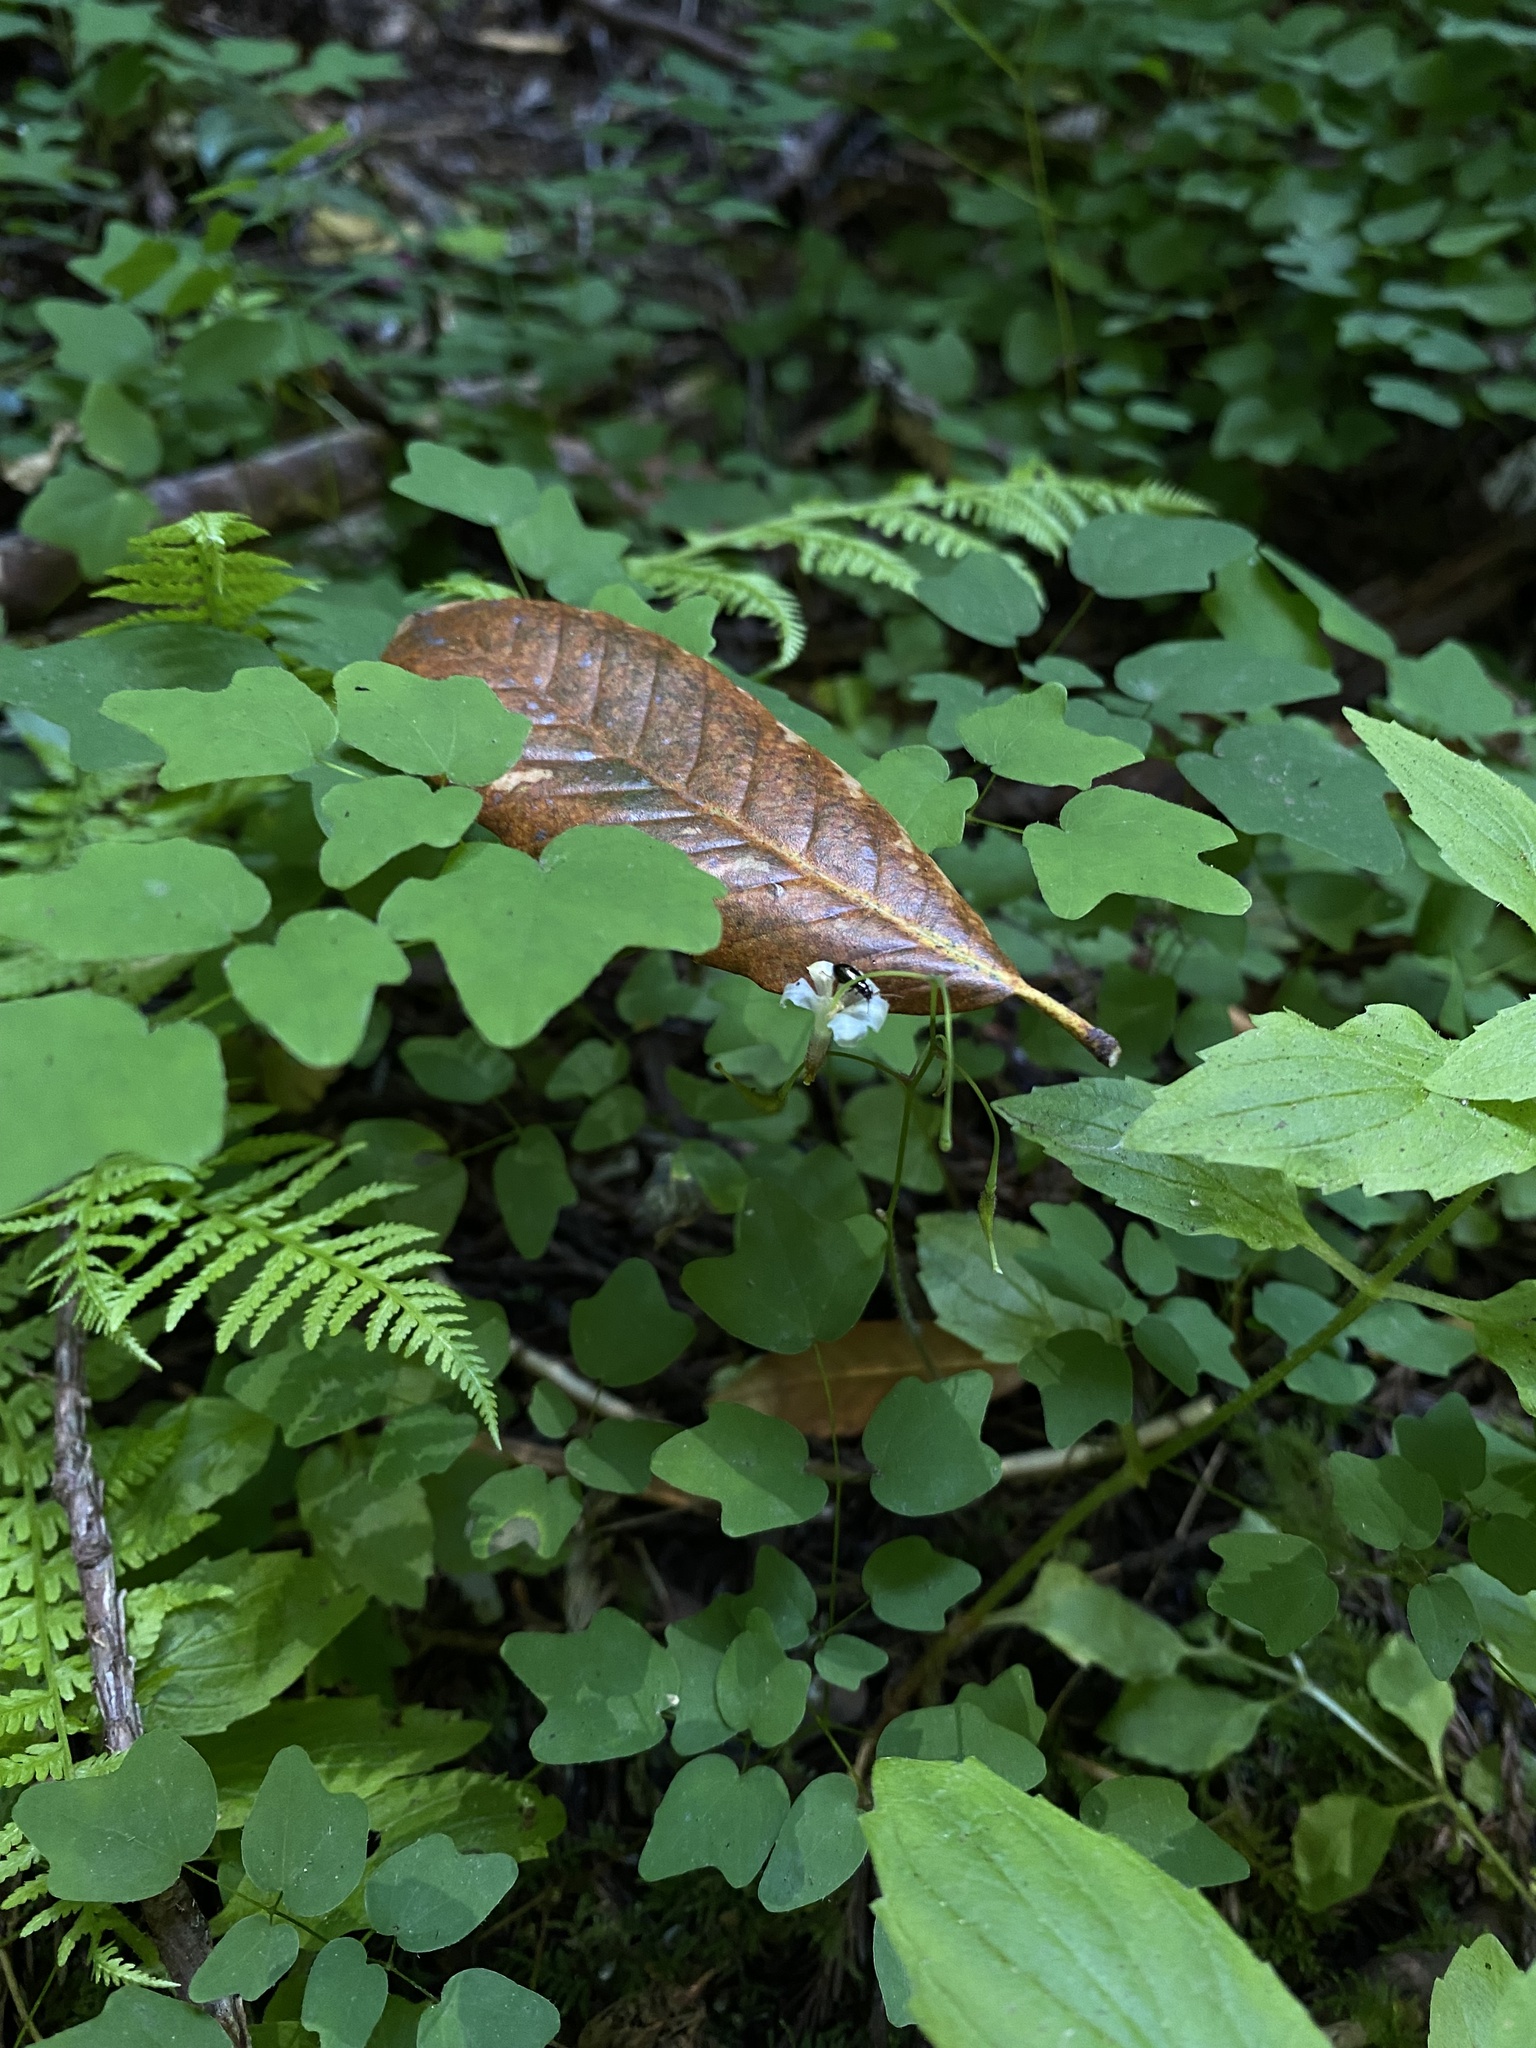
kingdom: Plantae
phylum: Tracheophyta
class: Magnoliopsida
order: Ranunculales
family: Berberidaceae
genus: Vancouveria
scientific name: Vancouveria hexandra
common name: Northern inside-out-flower
